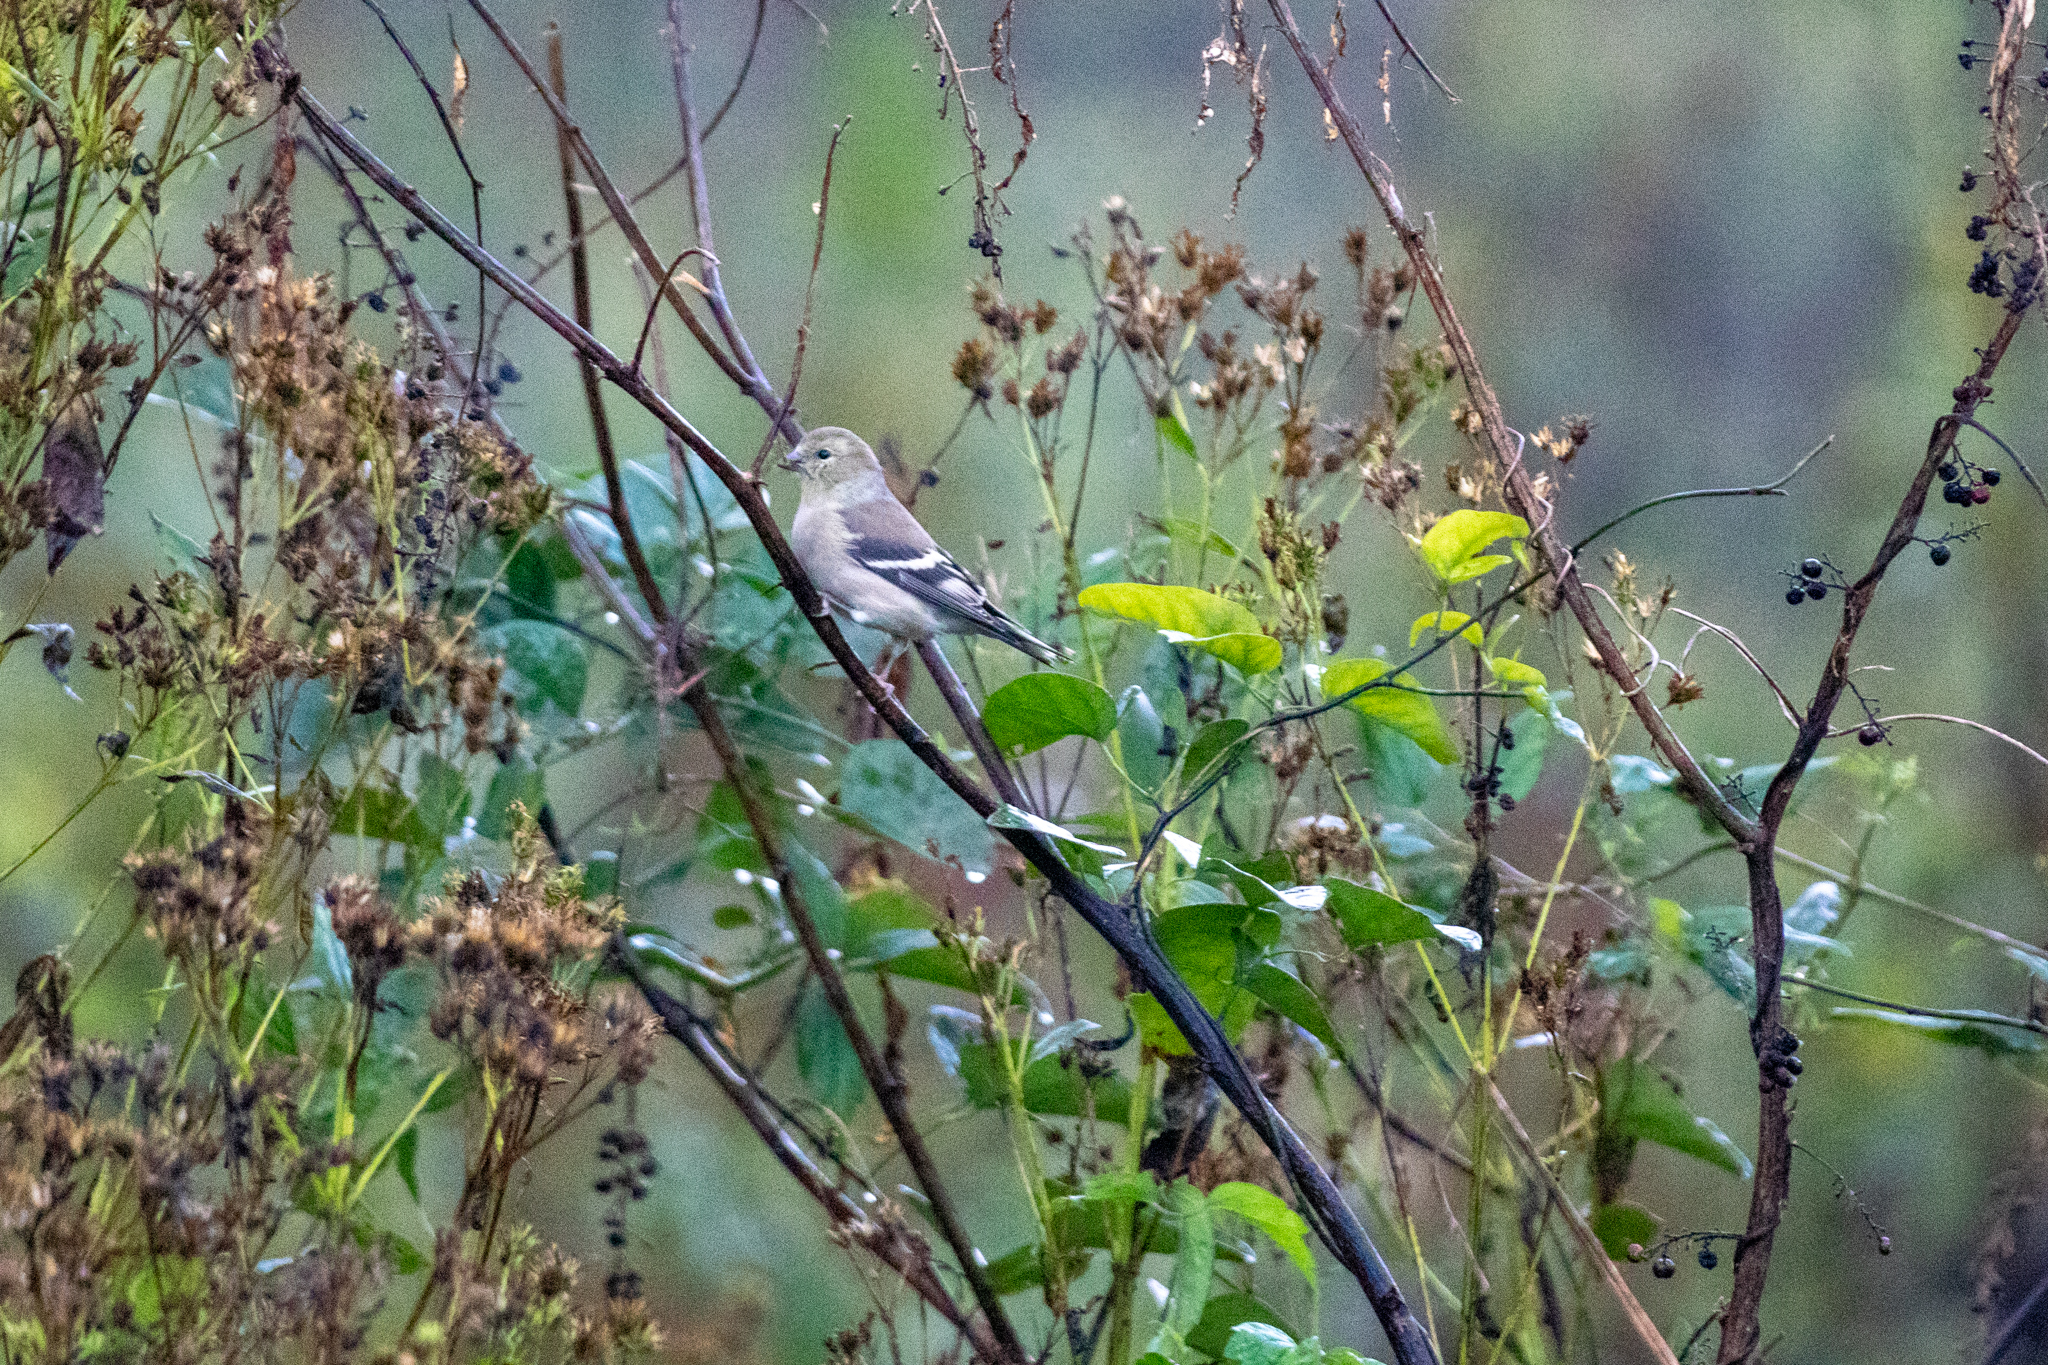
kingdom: Animalia
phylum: Chordata
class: Aves
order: Passeriformes
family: Fringillidae
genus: Spinus
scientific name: Spinus tristis
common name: American goldfinch
